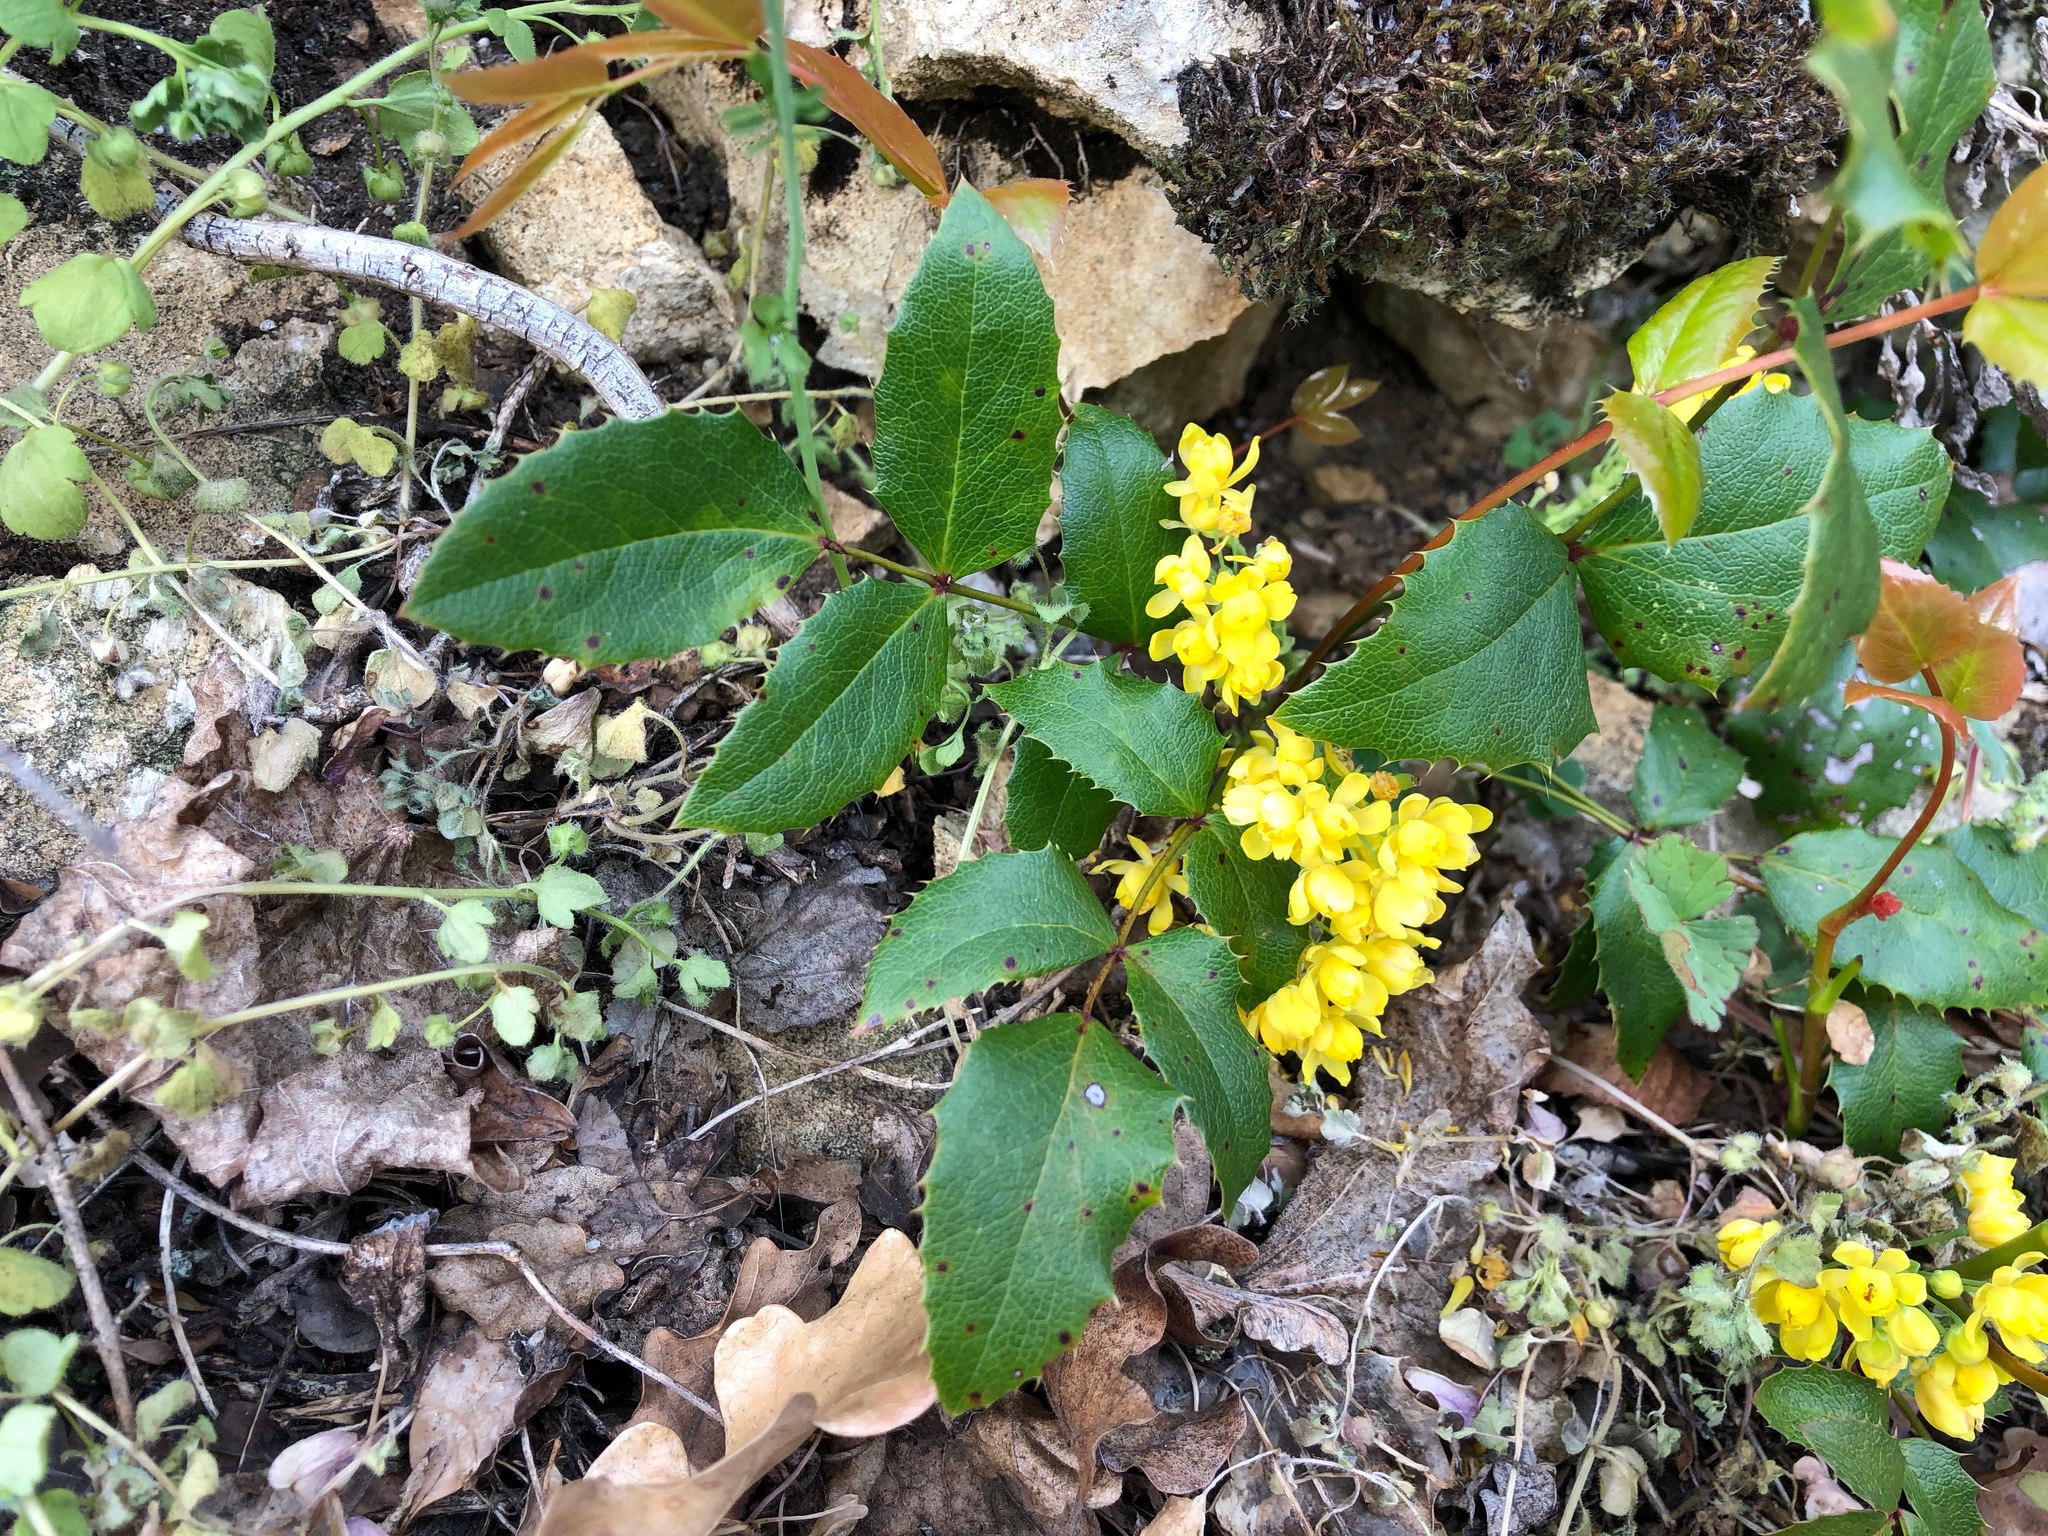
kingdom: Plantae
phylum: Tracheophyta
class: Magnoliopsida
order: Ranunculales
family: Berberidaceae
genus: Mahonia
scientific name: Mahonia aquifolium
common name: Oregon-grape
